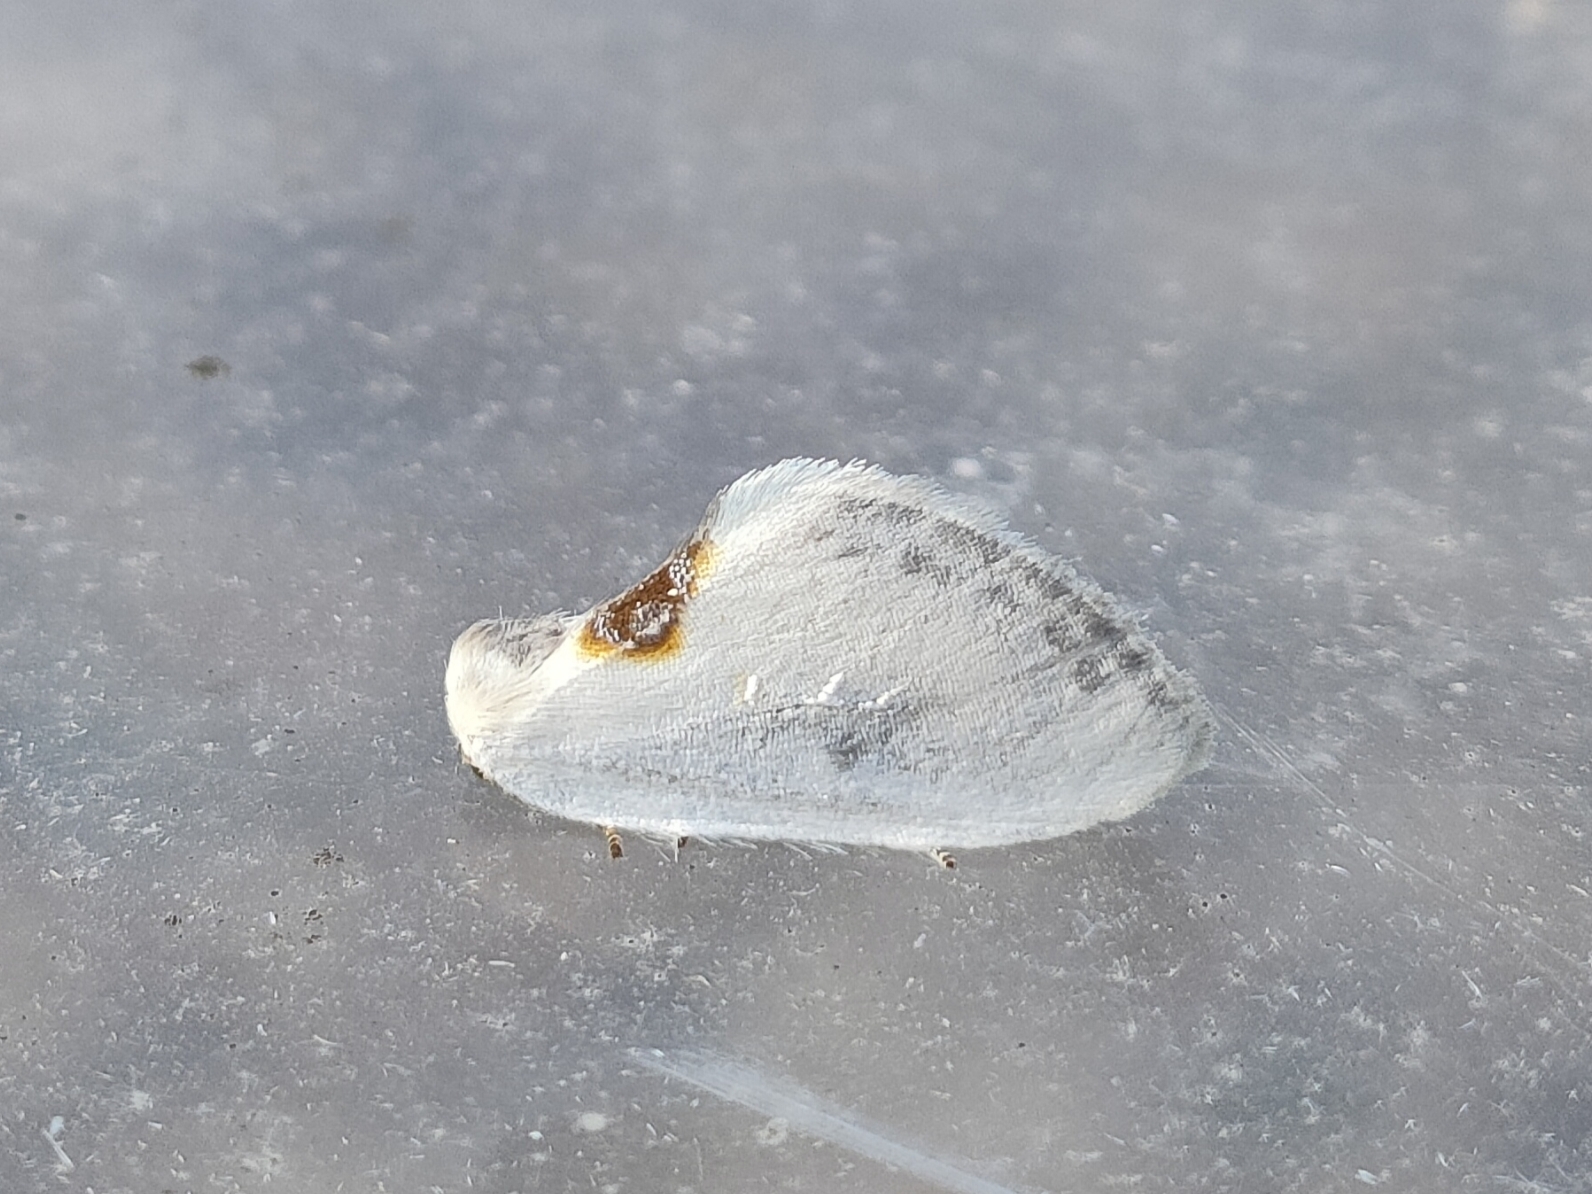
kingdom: Animalia
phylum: Arthropoda
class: Insecta
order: Lepidoptera
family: Drepanidae
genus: Cilix
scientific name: Cilix hispanica
